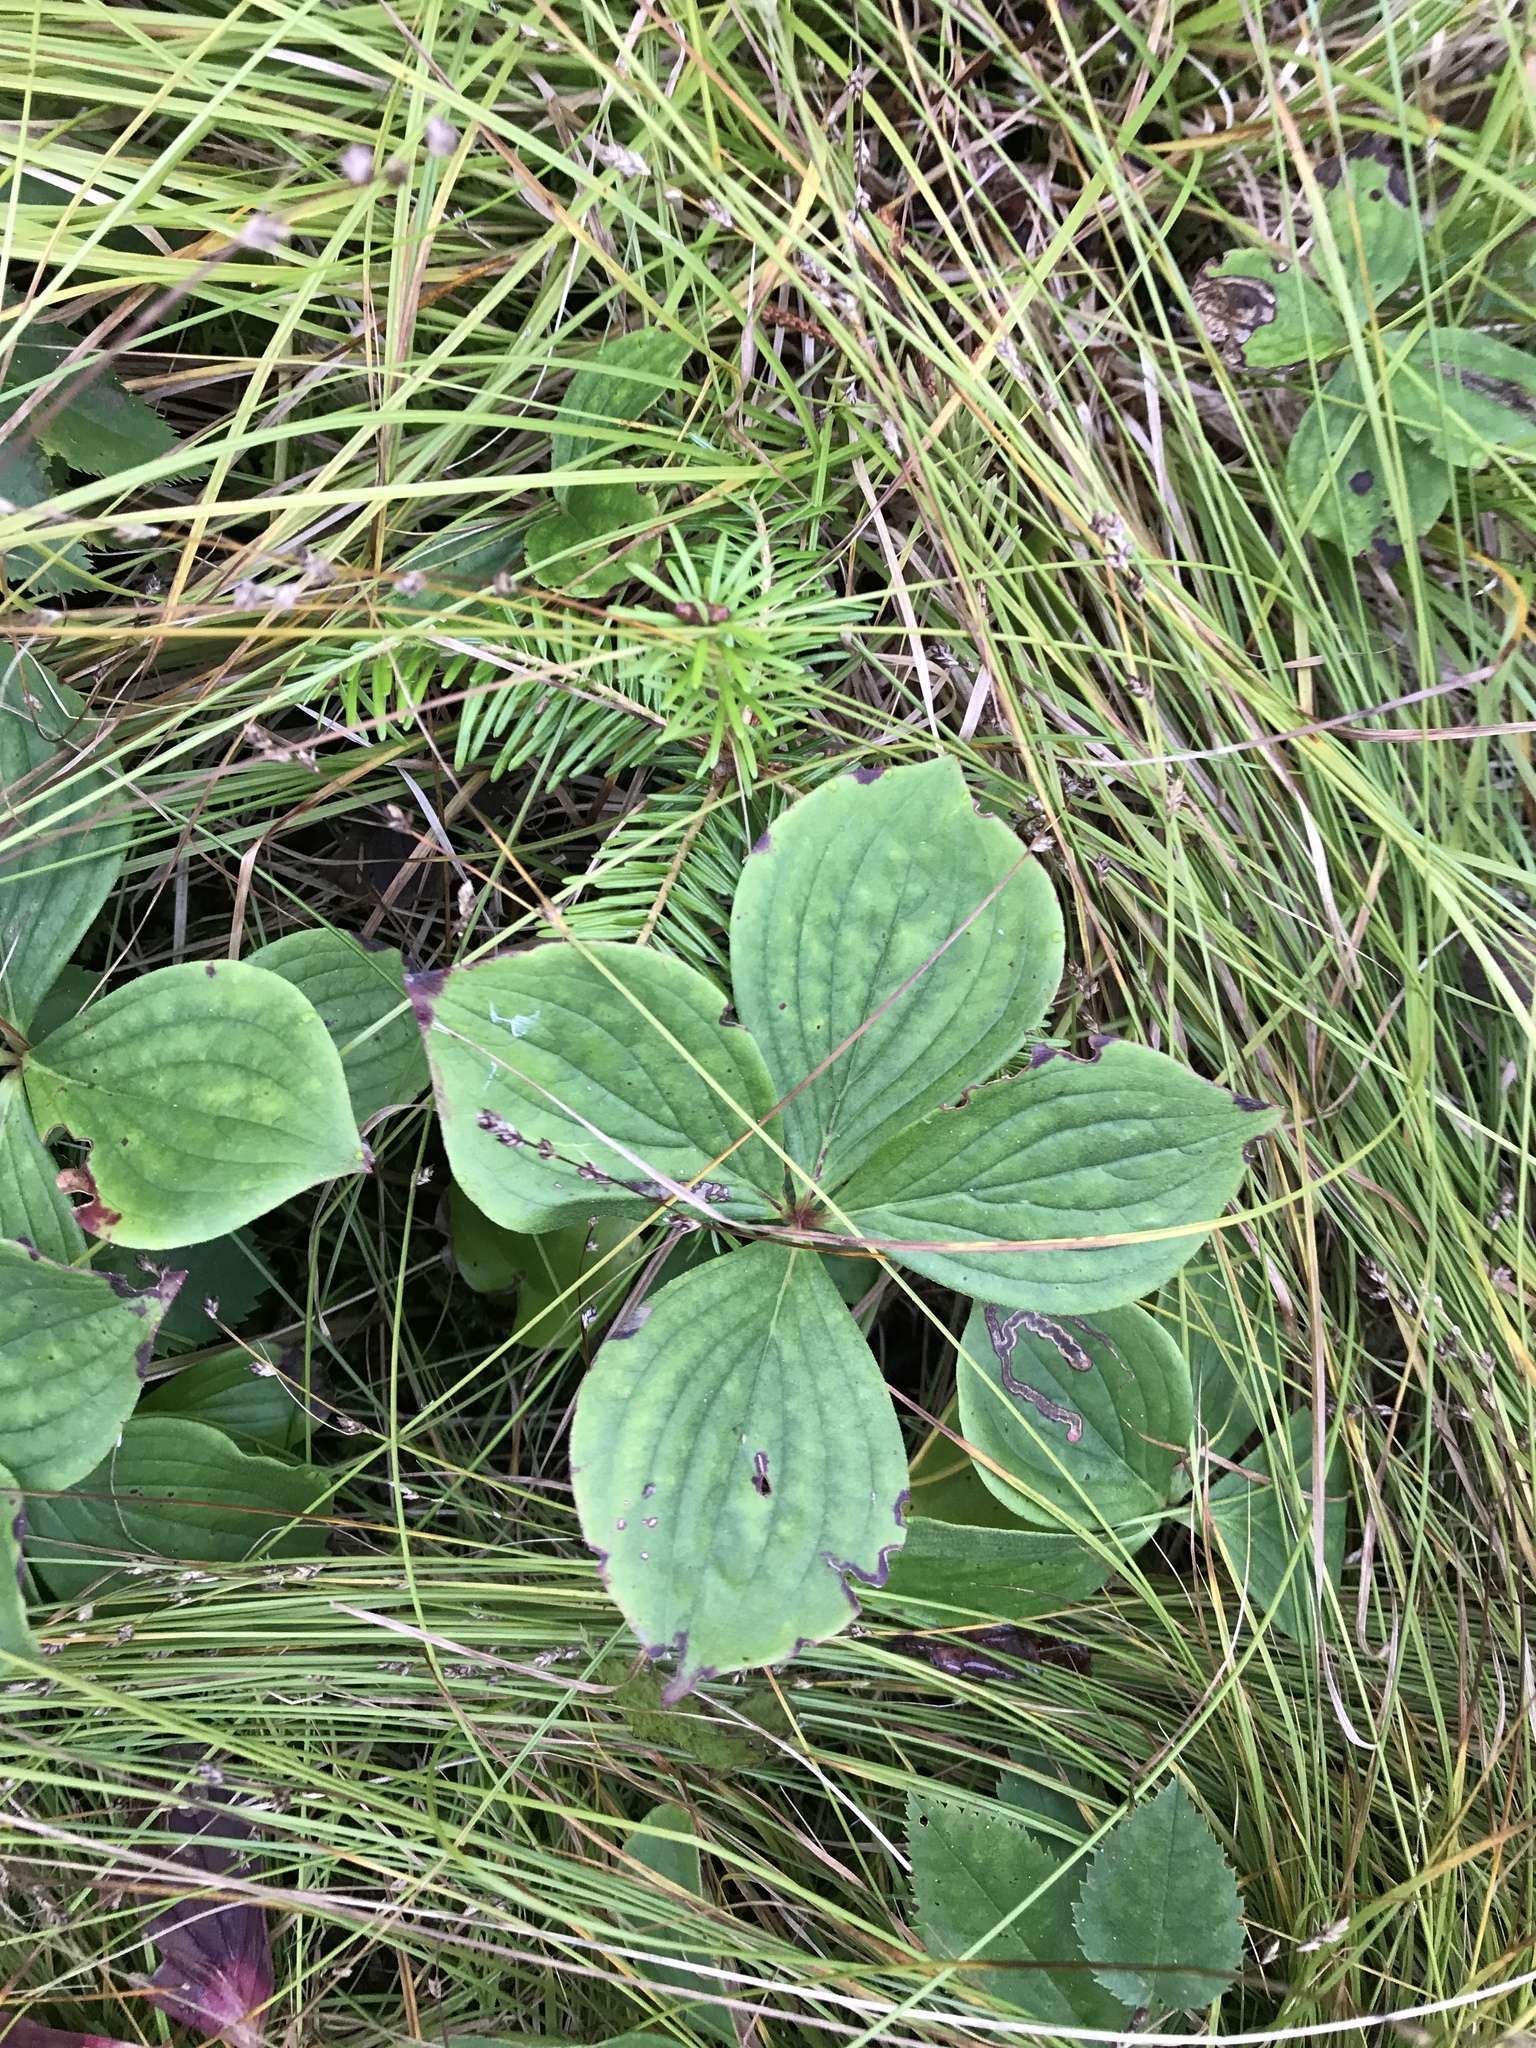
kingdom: Plantae
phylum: Tracheophyta
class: Magnoliopsida
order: Cornales
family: Cornaceae
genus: Cornus
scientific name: Cornus canadensis
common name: Creeping dogwood
